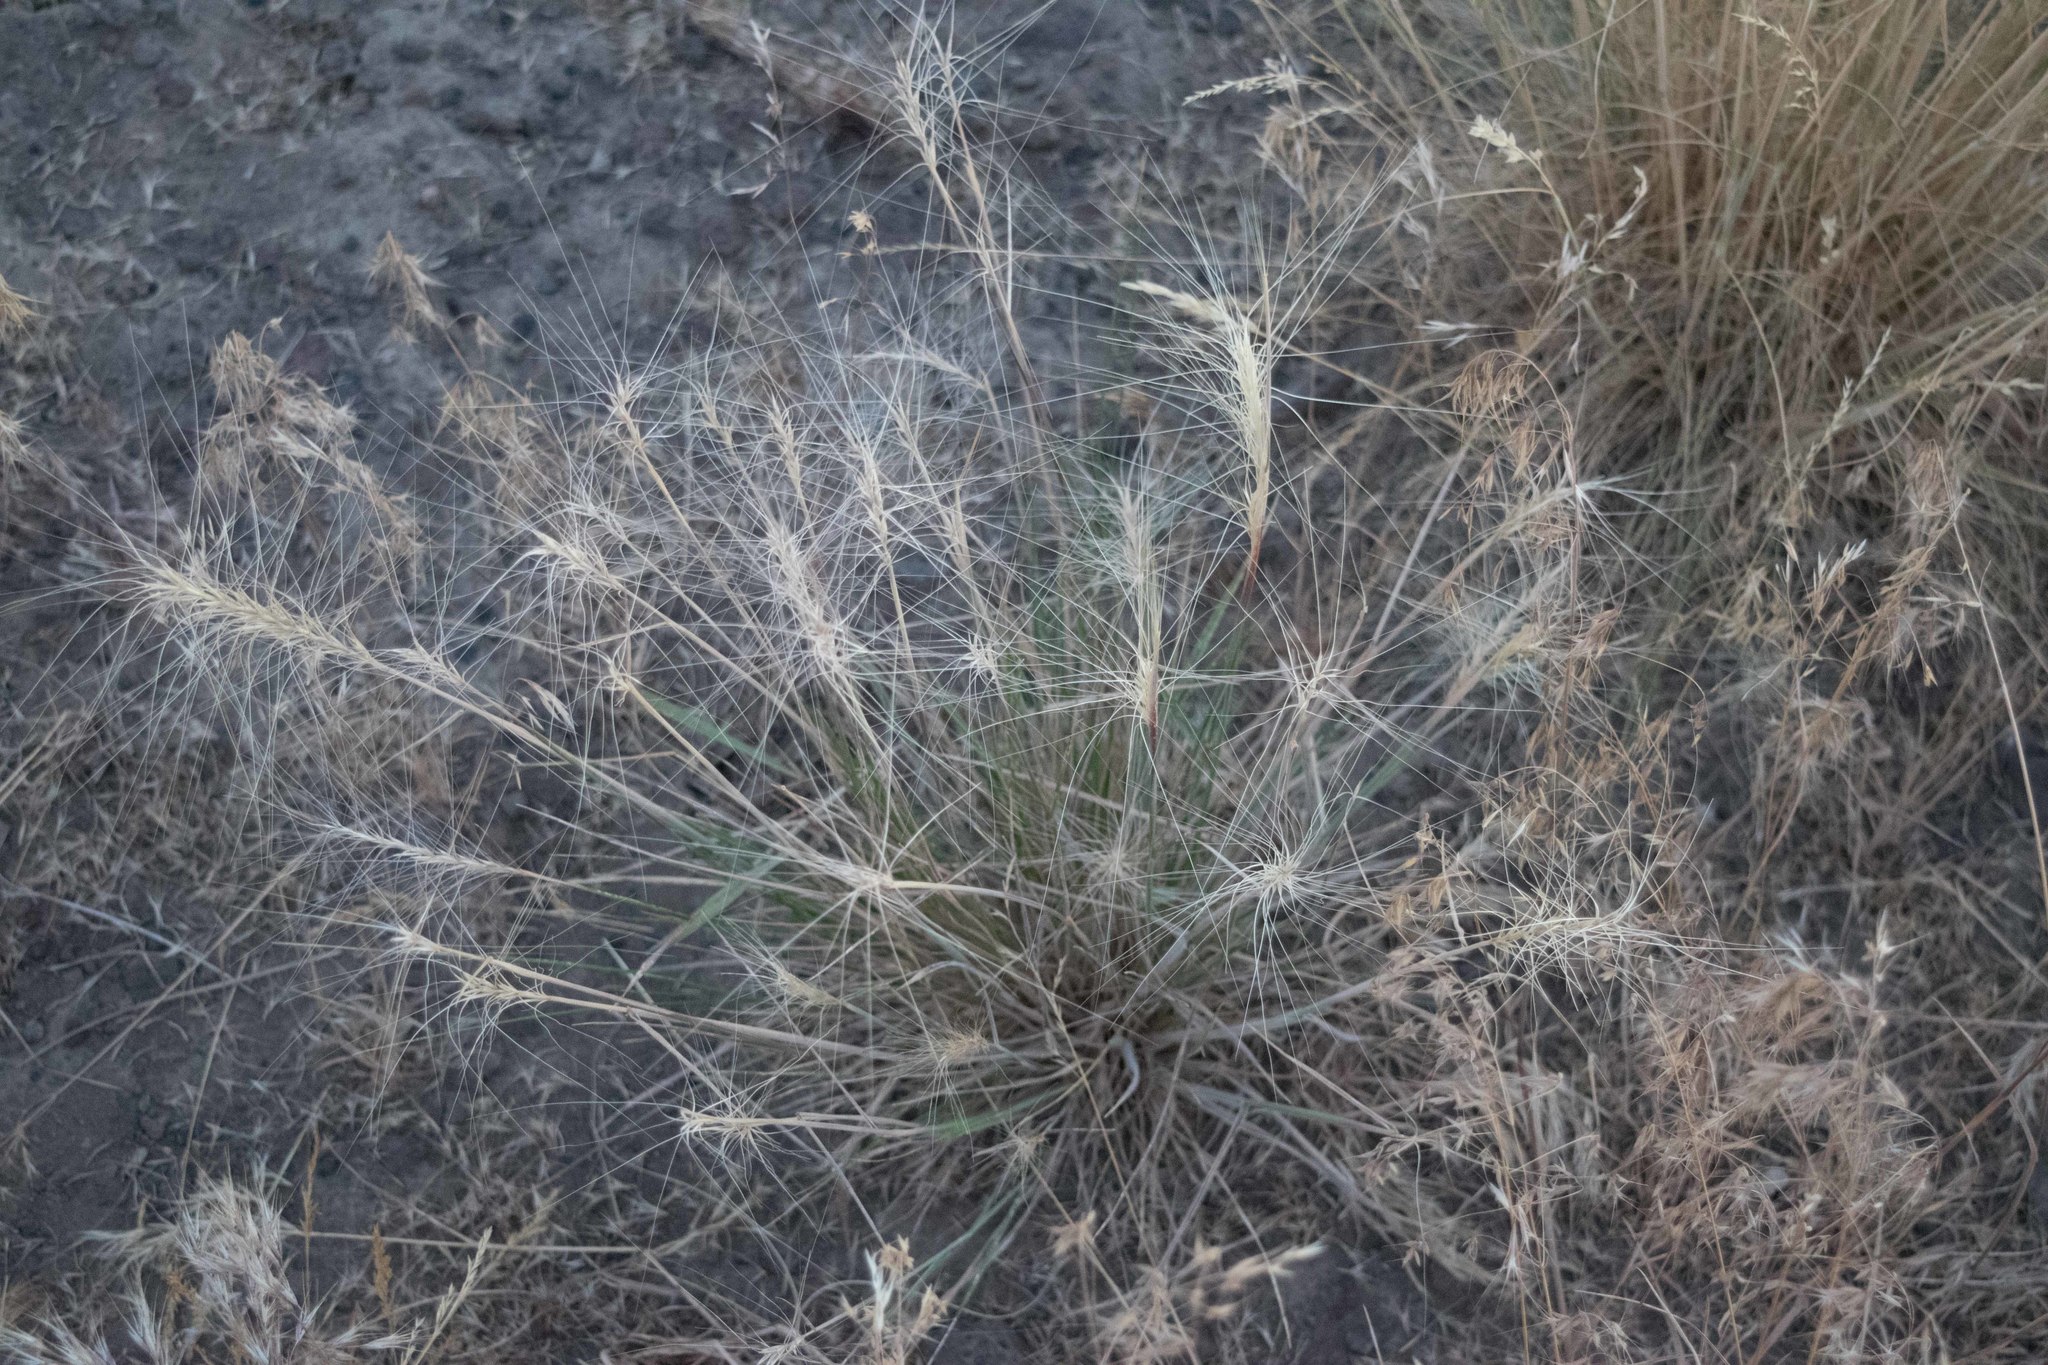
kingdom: Plantae
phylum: Tracheophyta
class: Liliopsida
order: Poales
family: Poaceae
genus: Elymus
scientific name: Elymus elymoides
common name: Bottlebrush squirreltail
